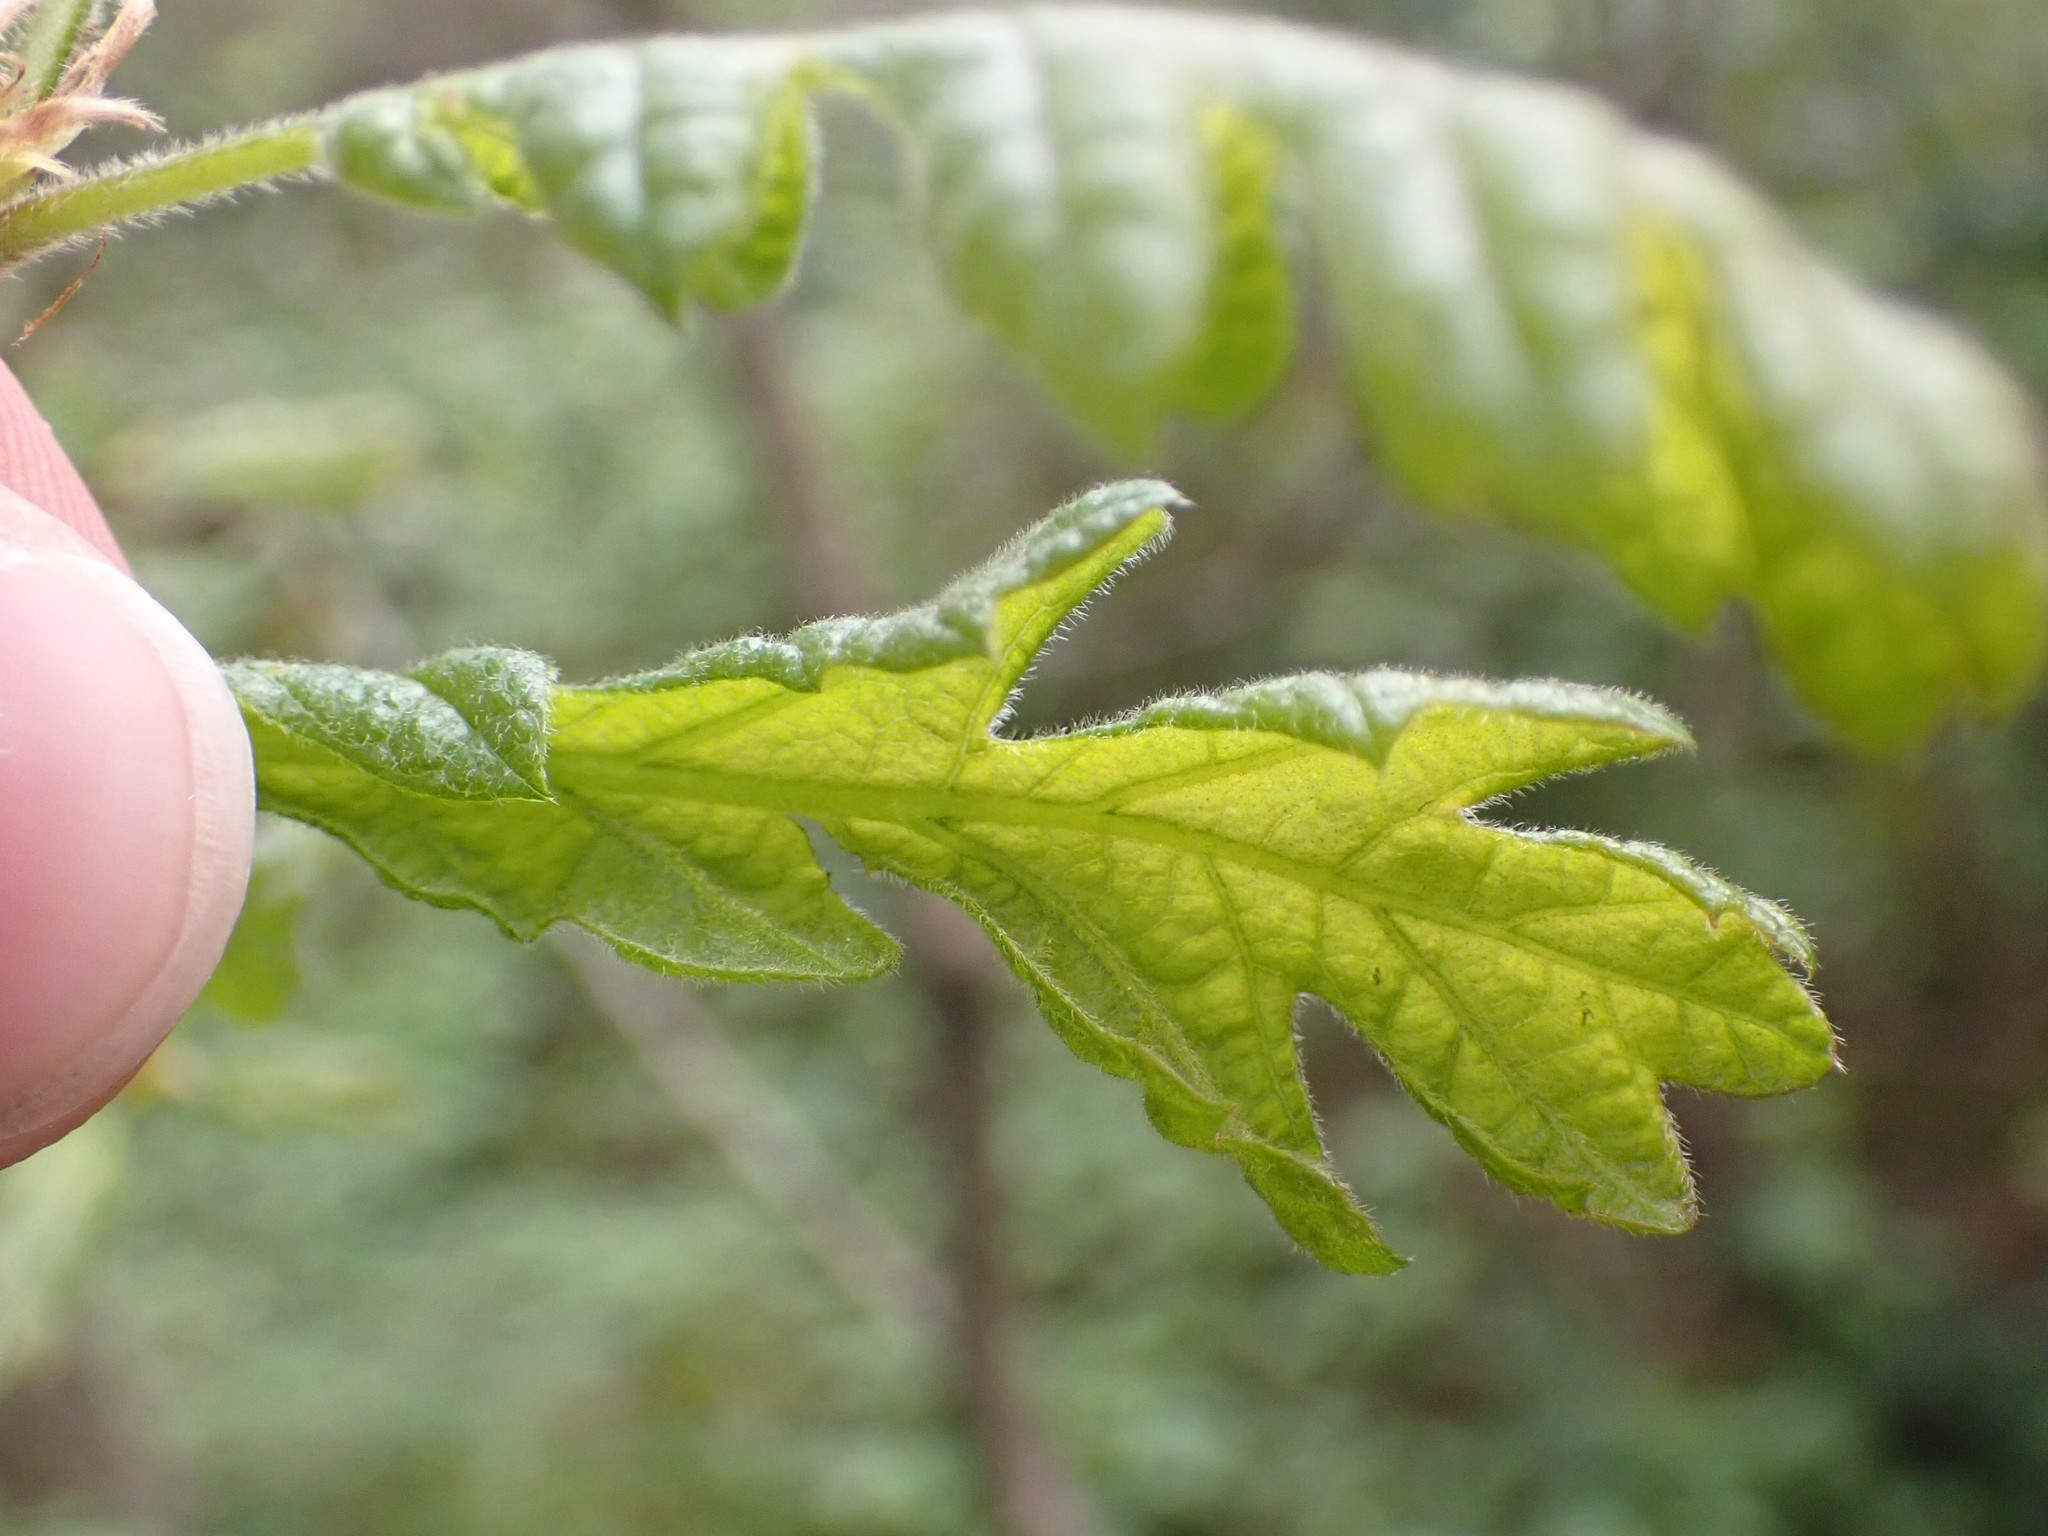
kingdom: Plantae
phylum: Tracheophyta
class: Magnoliopsida
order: Fagales
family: Fagaceae
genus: Quercus
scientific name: Quercus garryana
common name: Garry oak
